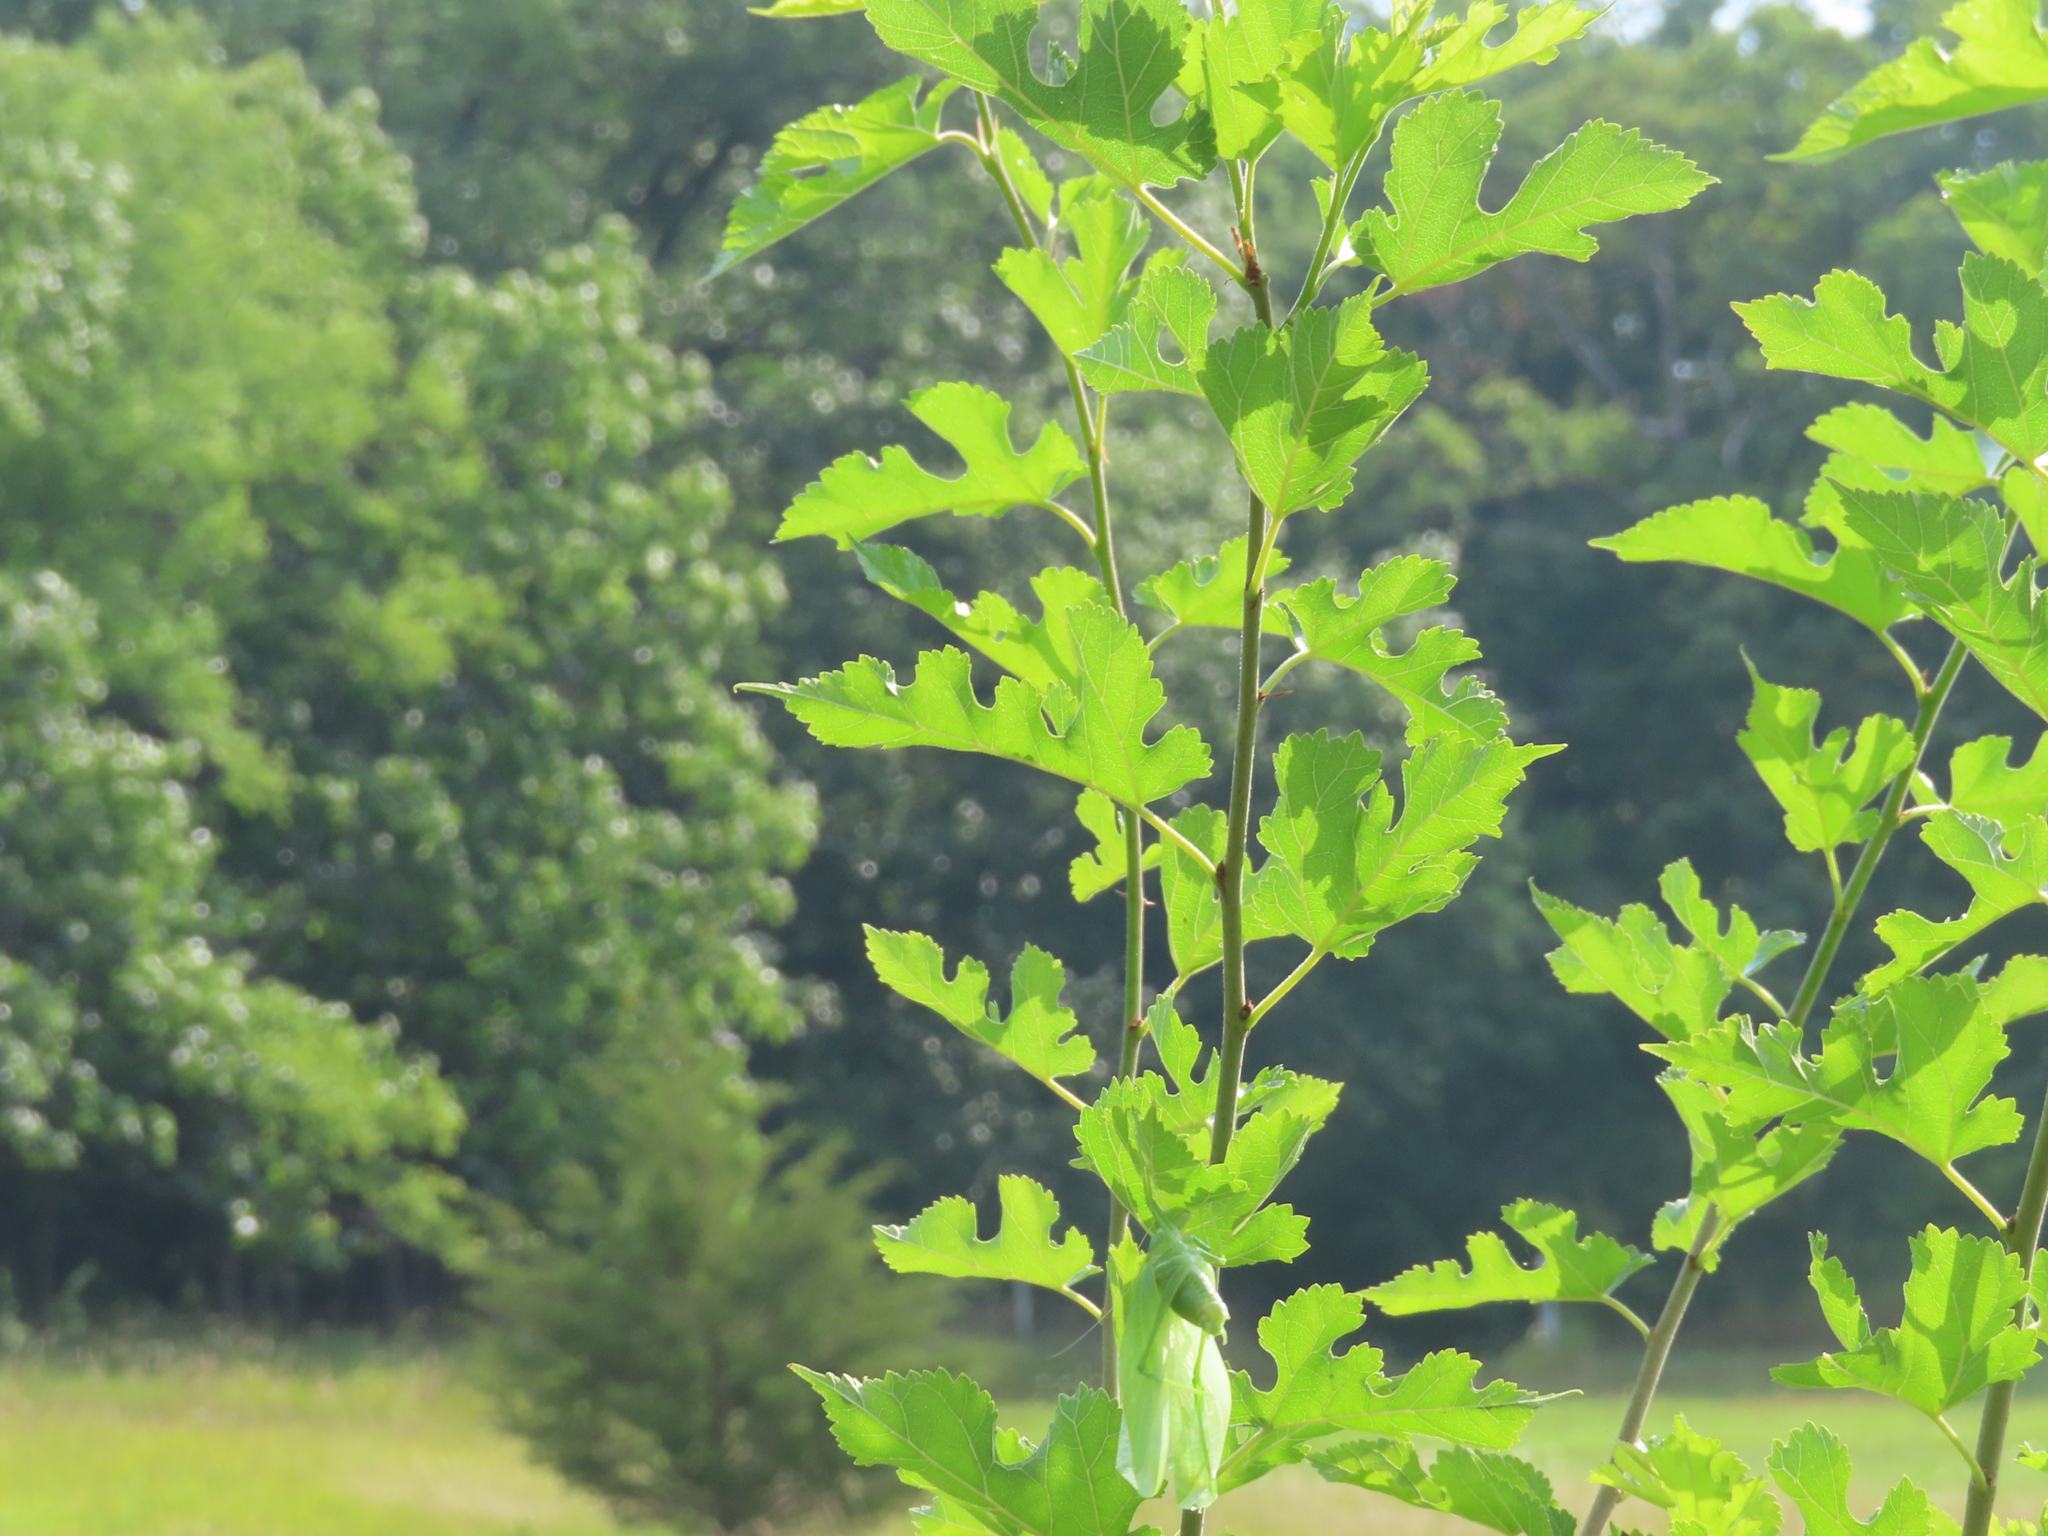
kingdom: Plantae
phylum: Tracheophyta
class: Magnoliopsida
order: Rosales
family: Moraceae
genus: Morus
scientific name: Morus alba
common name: White mulberry
